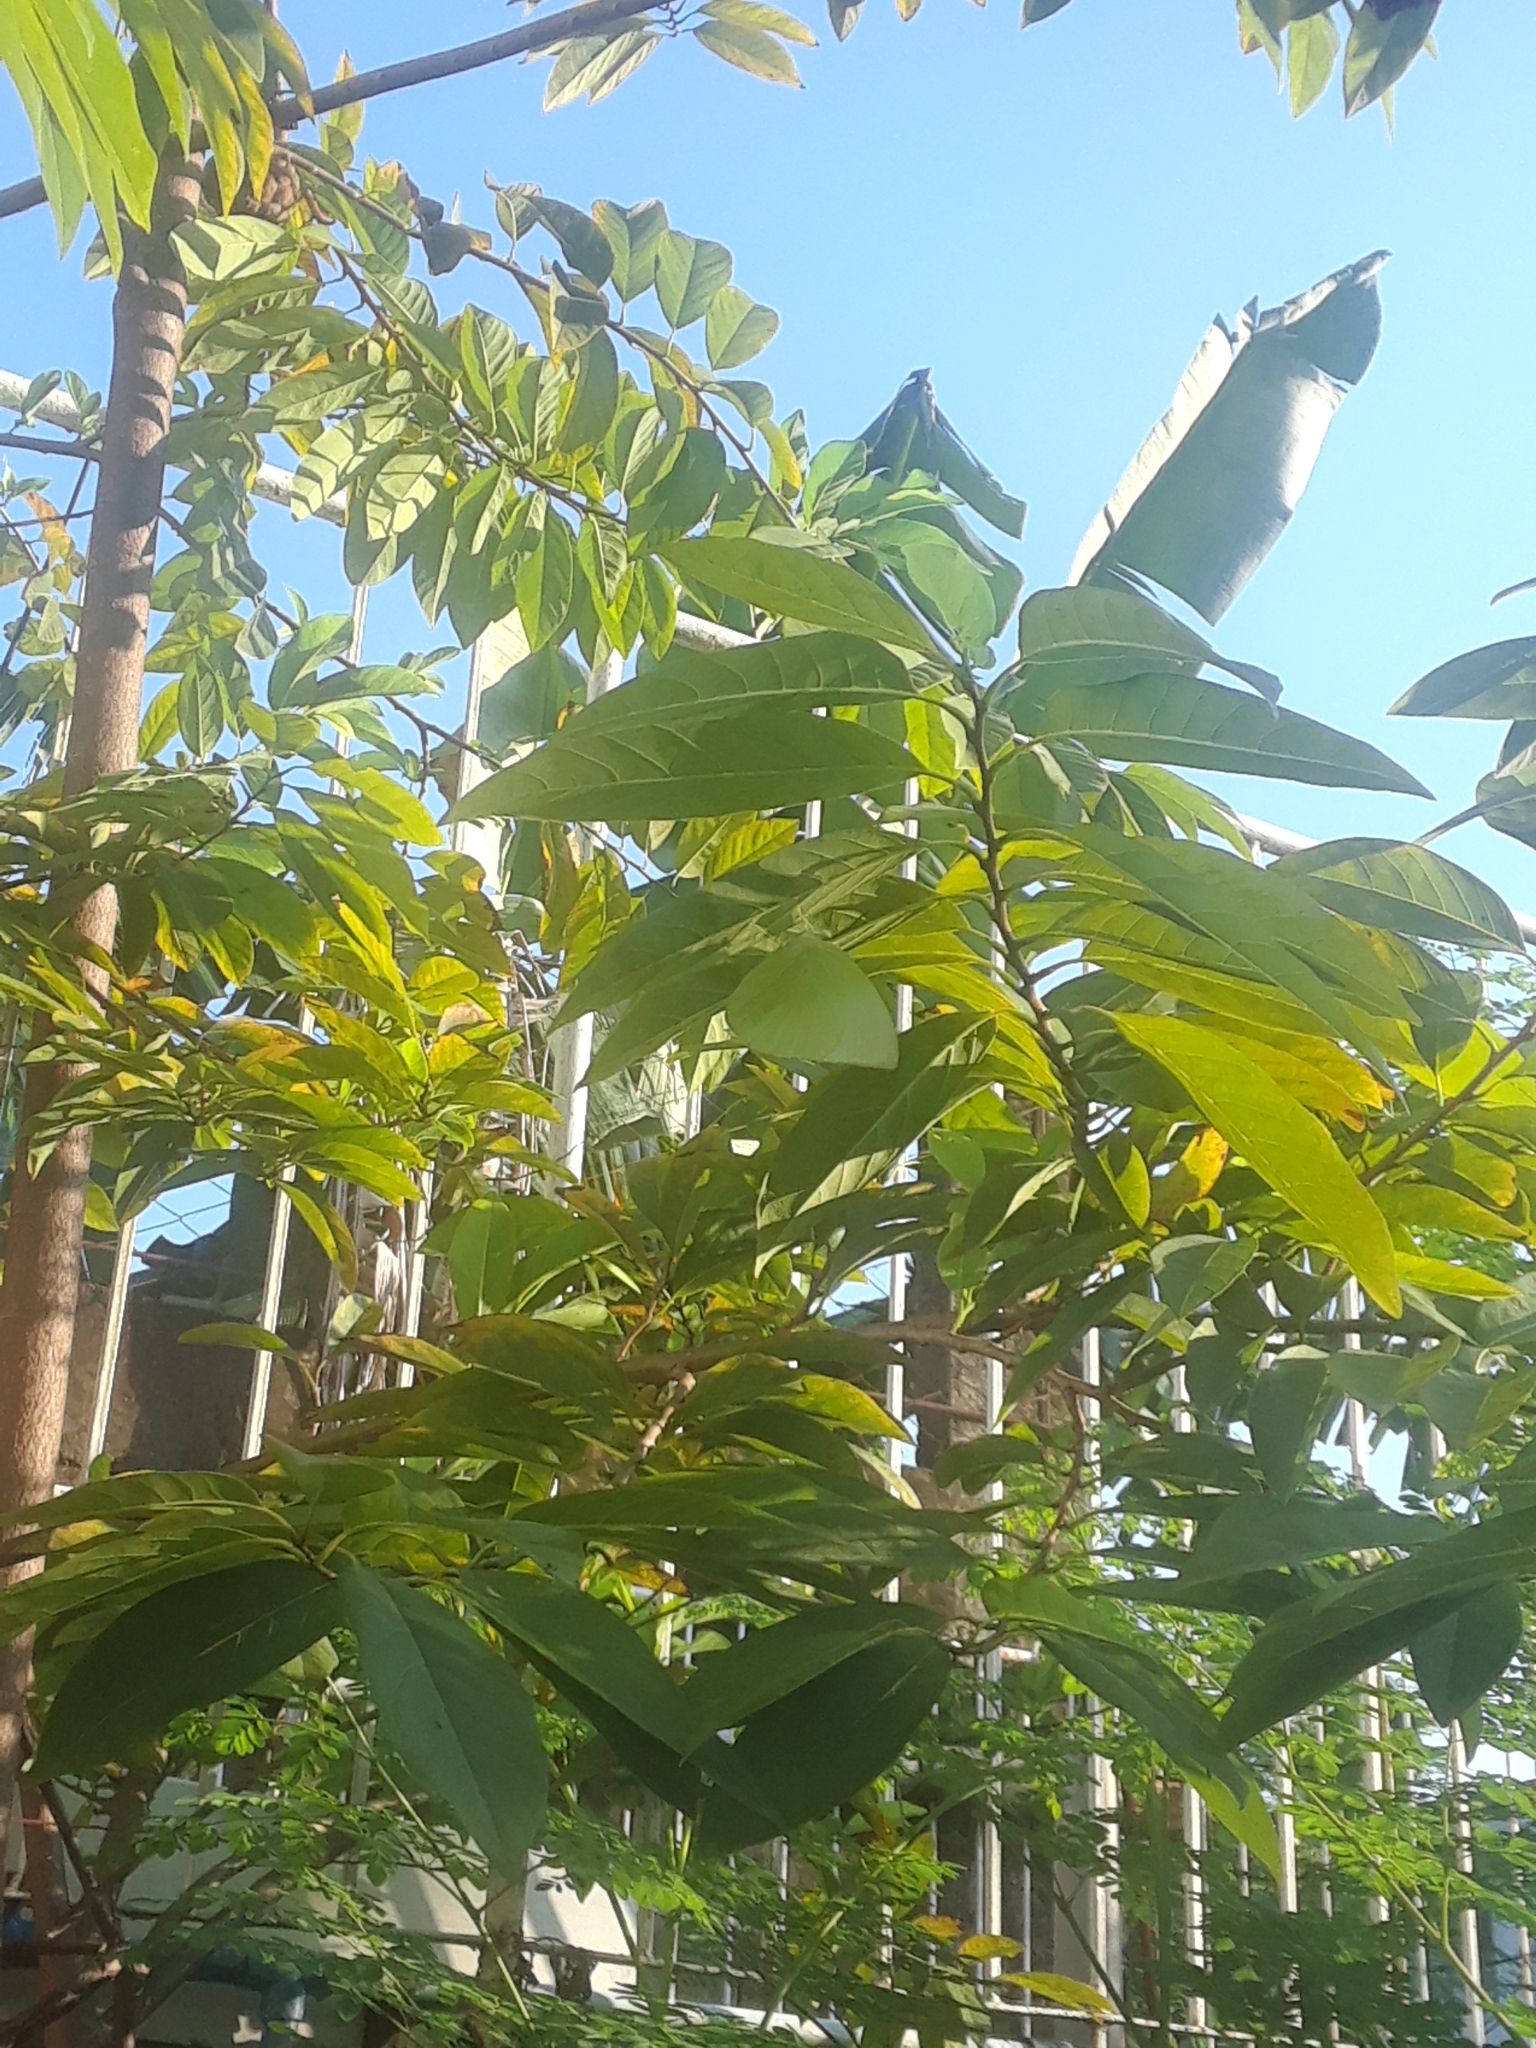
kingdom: Animalia
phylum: Arthropoda
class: Insecta
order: Lepidoptera
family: Pieridae
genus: Catopsilia
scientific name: Catopsilia pomona
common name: Common emigrant
